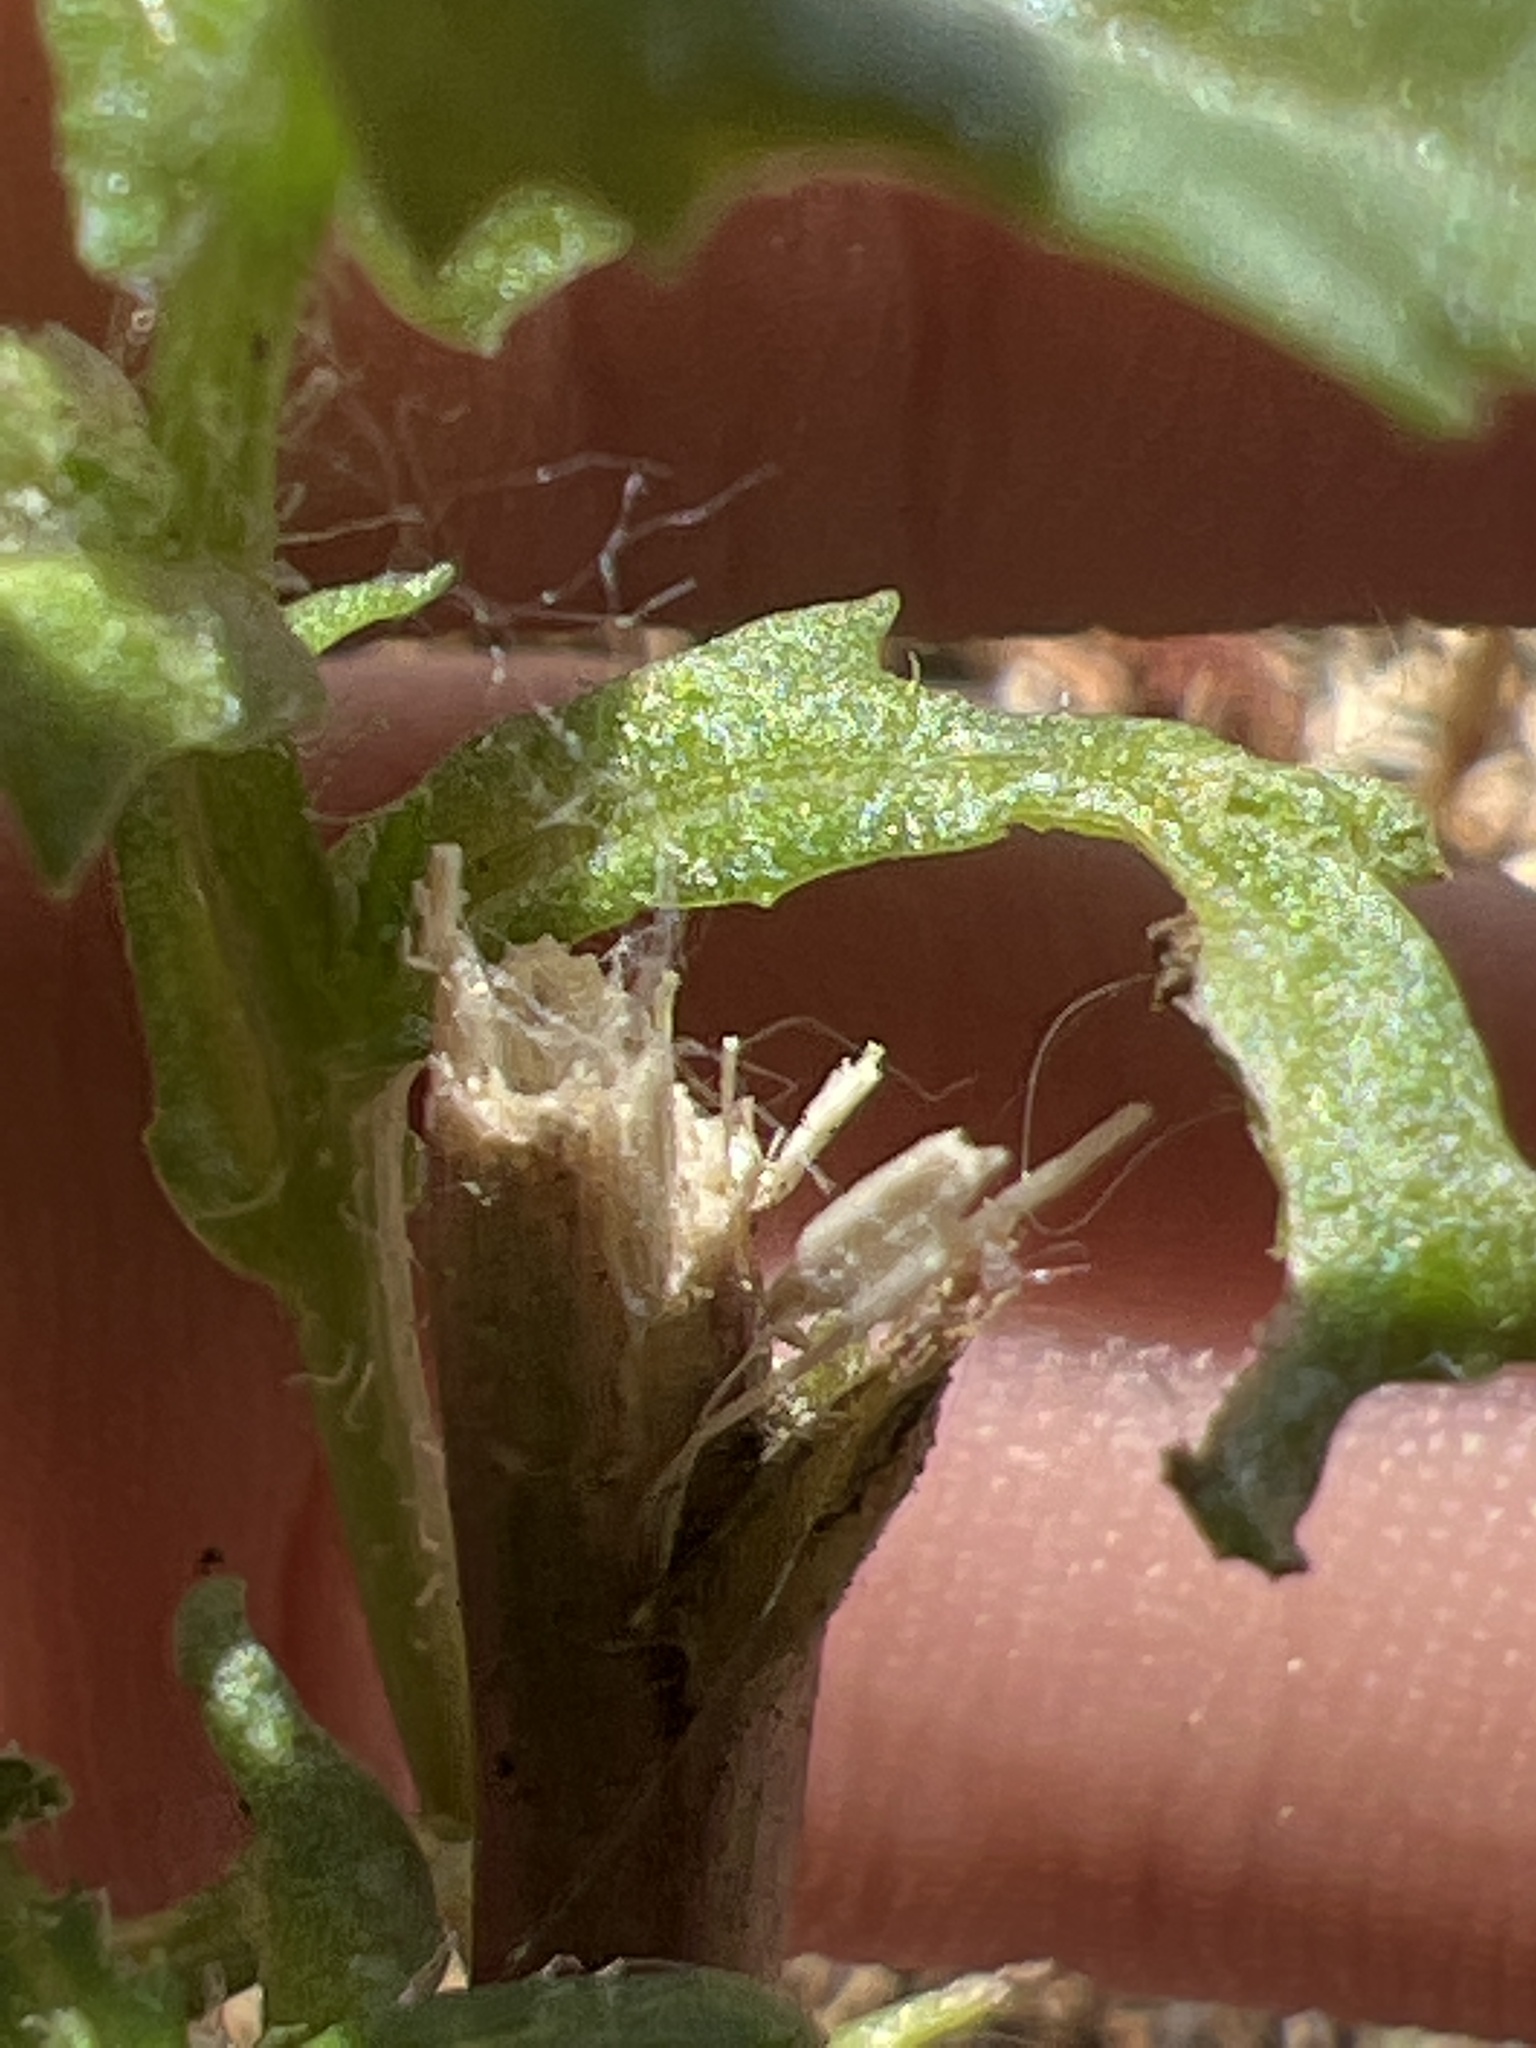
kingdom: Plantae
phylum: Tracheophyta
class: Magnoliopsida
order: Asterales
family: Asteraceae
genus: Senecio
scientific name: Senecio vulgaris
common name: Old-man-in-the-spring
